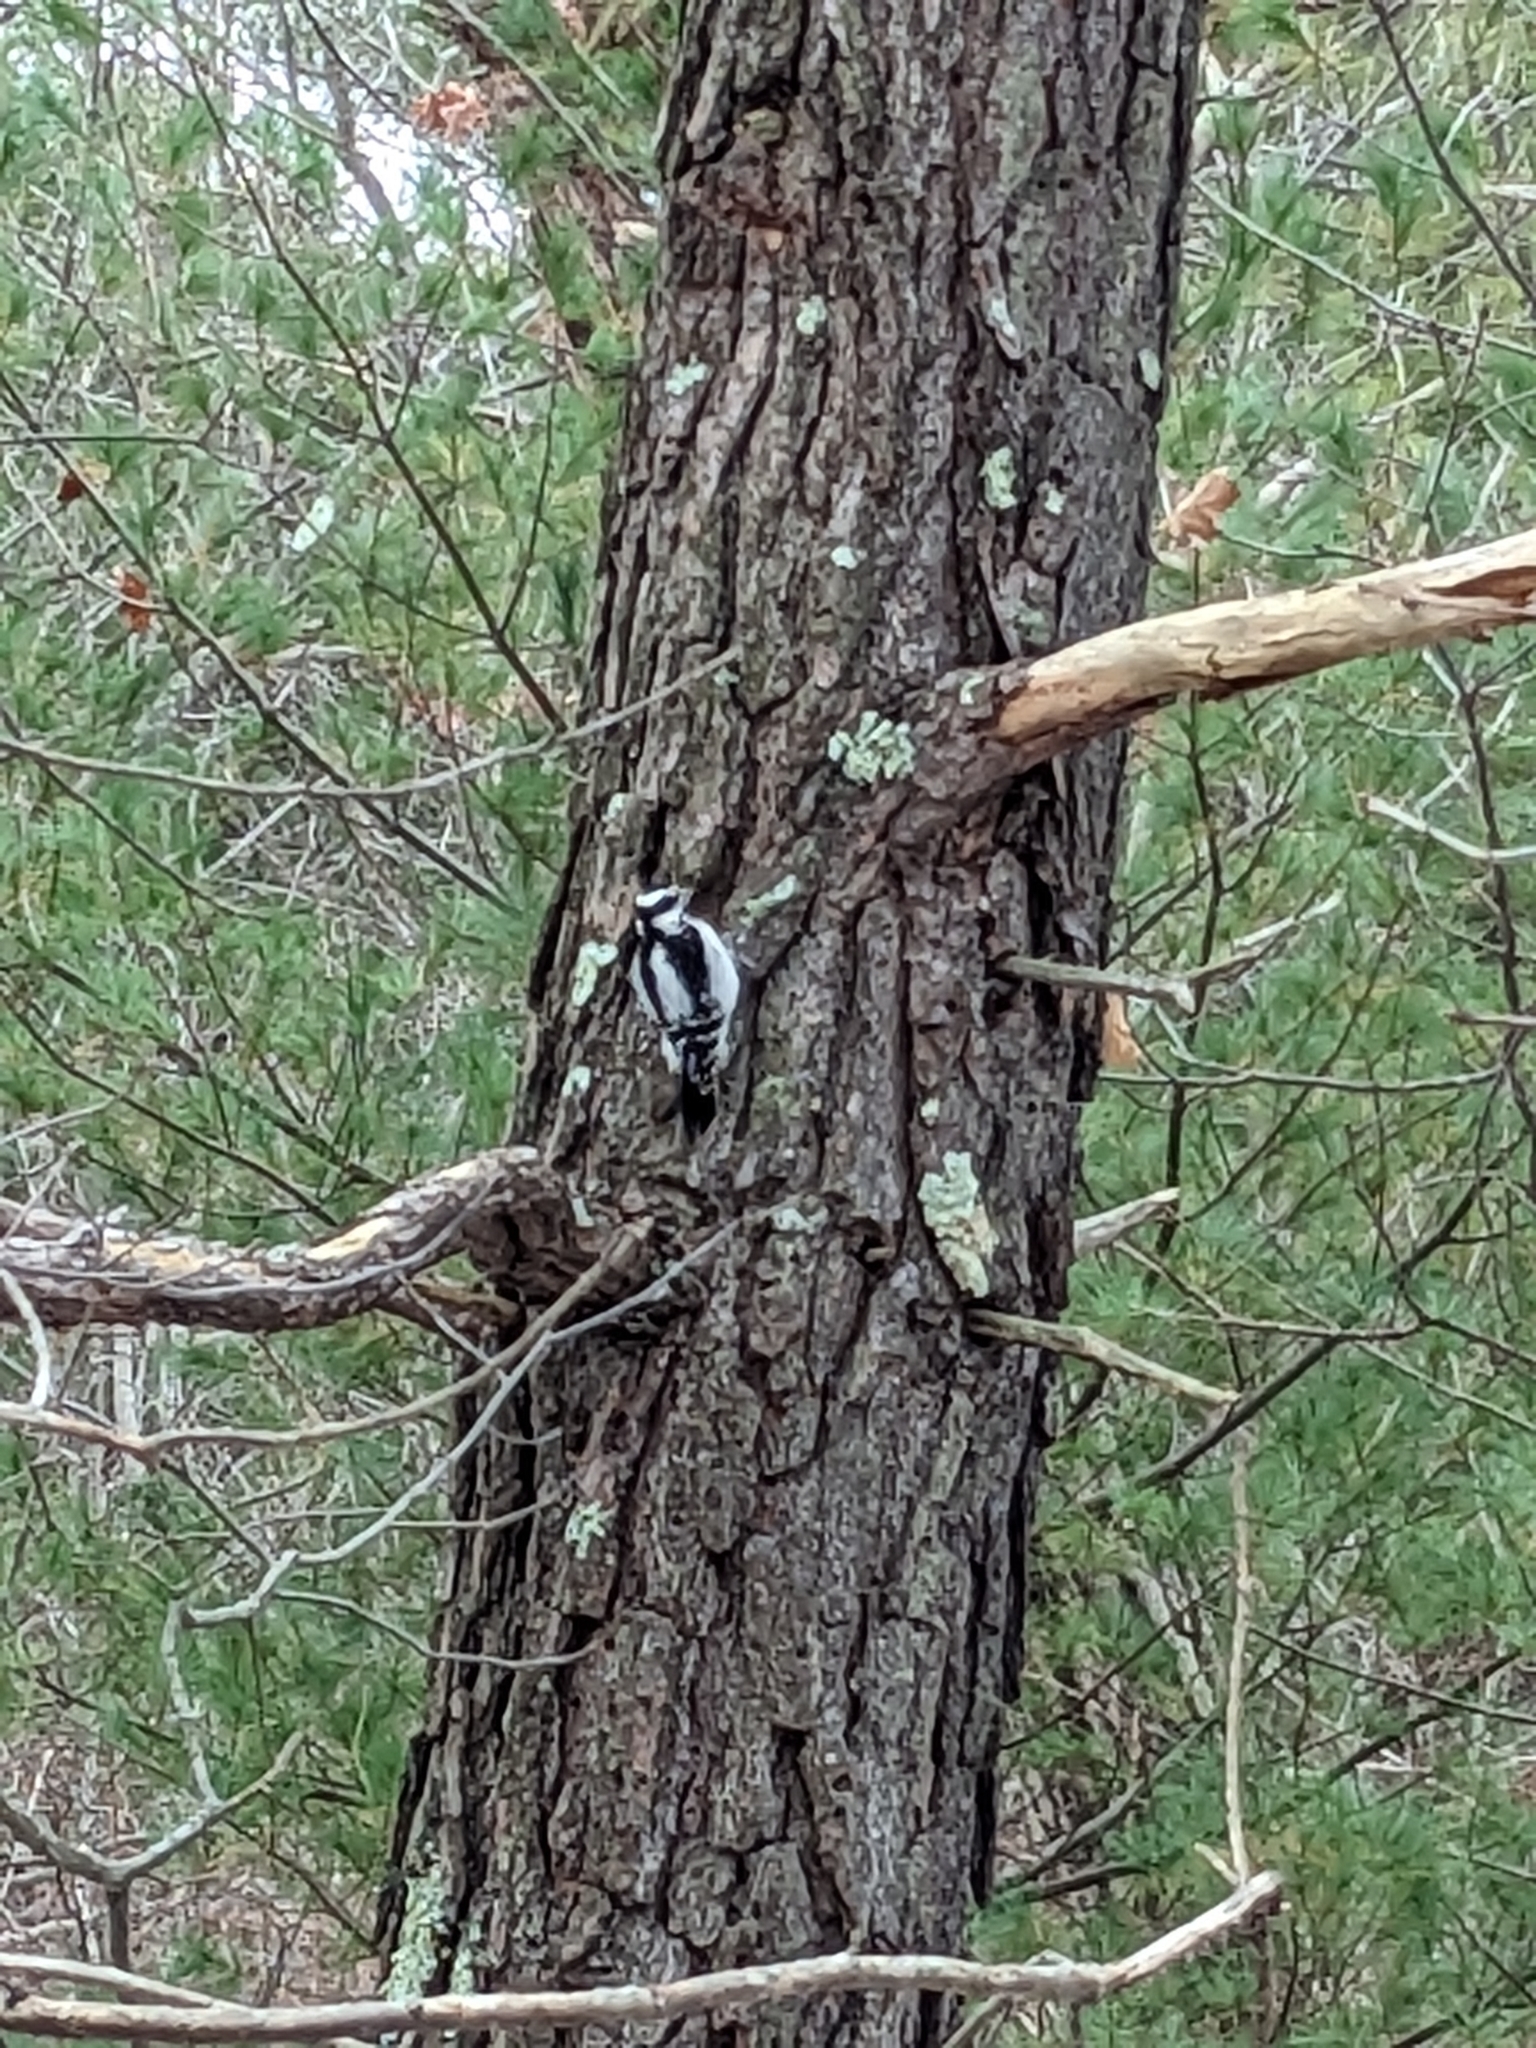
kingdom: Animalia
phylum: Chordata
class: Aves
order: Piciformes
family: Picidae
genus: Leuconotopicus
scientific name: Leuconotopicus villosus
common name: Hairy woodpecker
